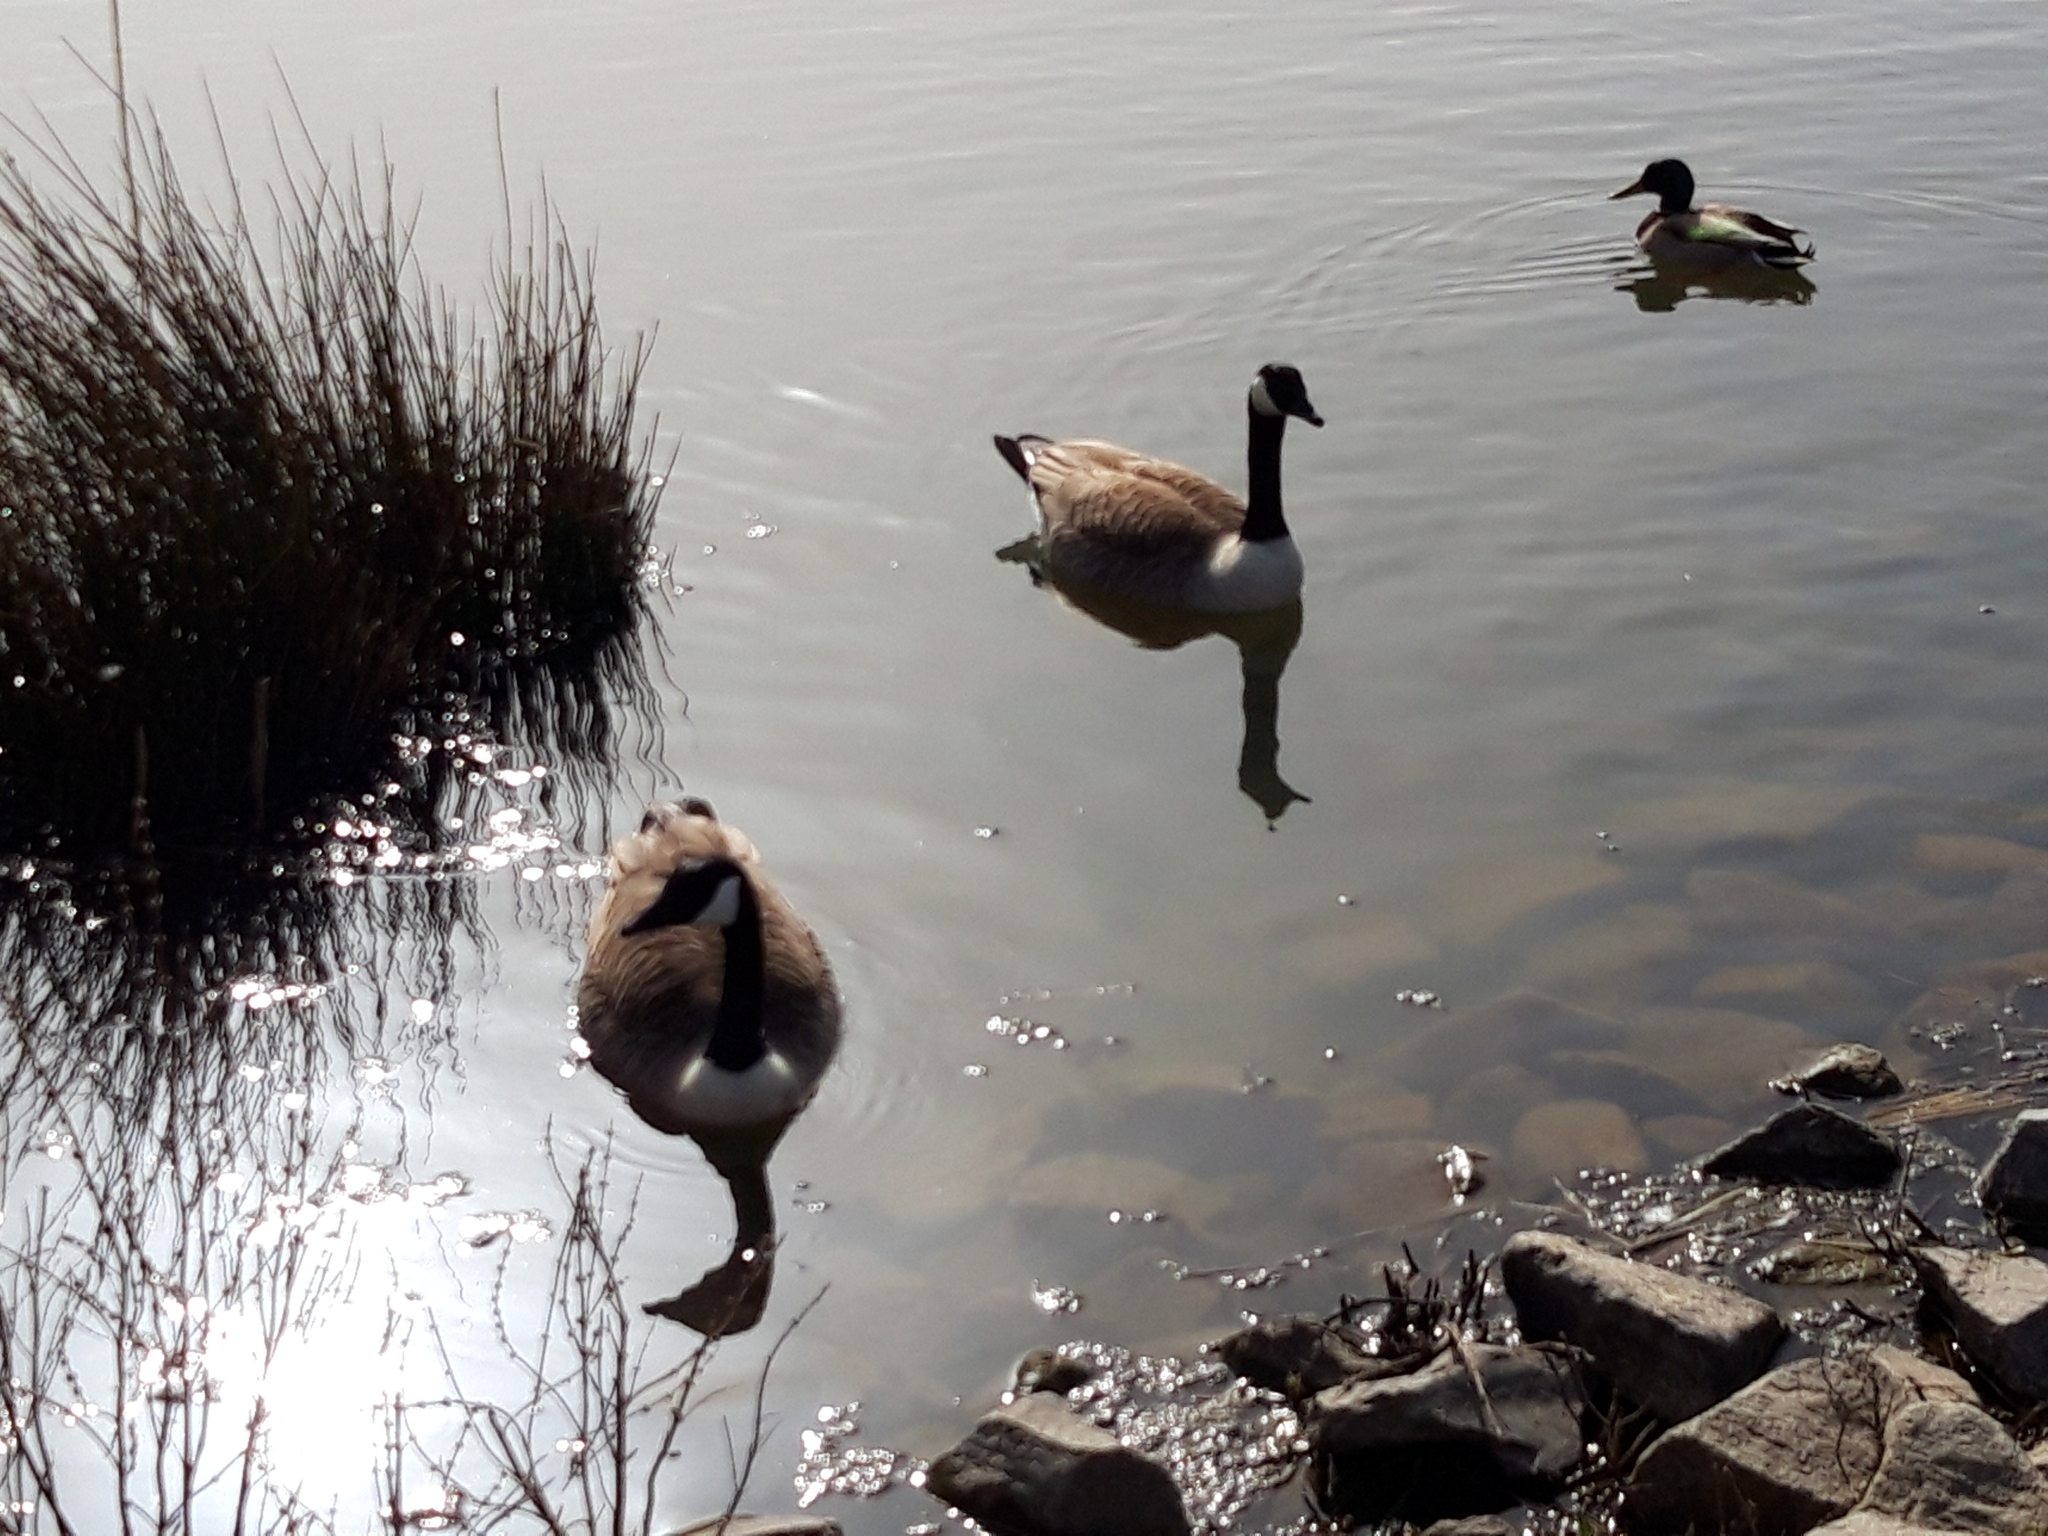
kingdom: Animalia
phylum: Chordata
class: Aves
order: Anseriformes
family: Anatidae
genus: Branta
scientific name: Branta canadensis
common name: Canada goose
